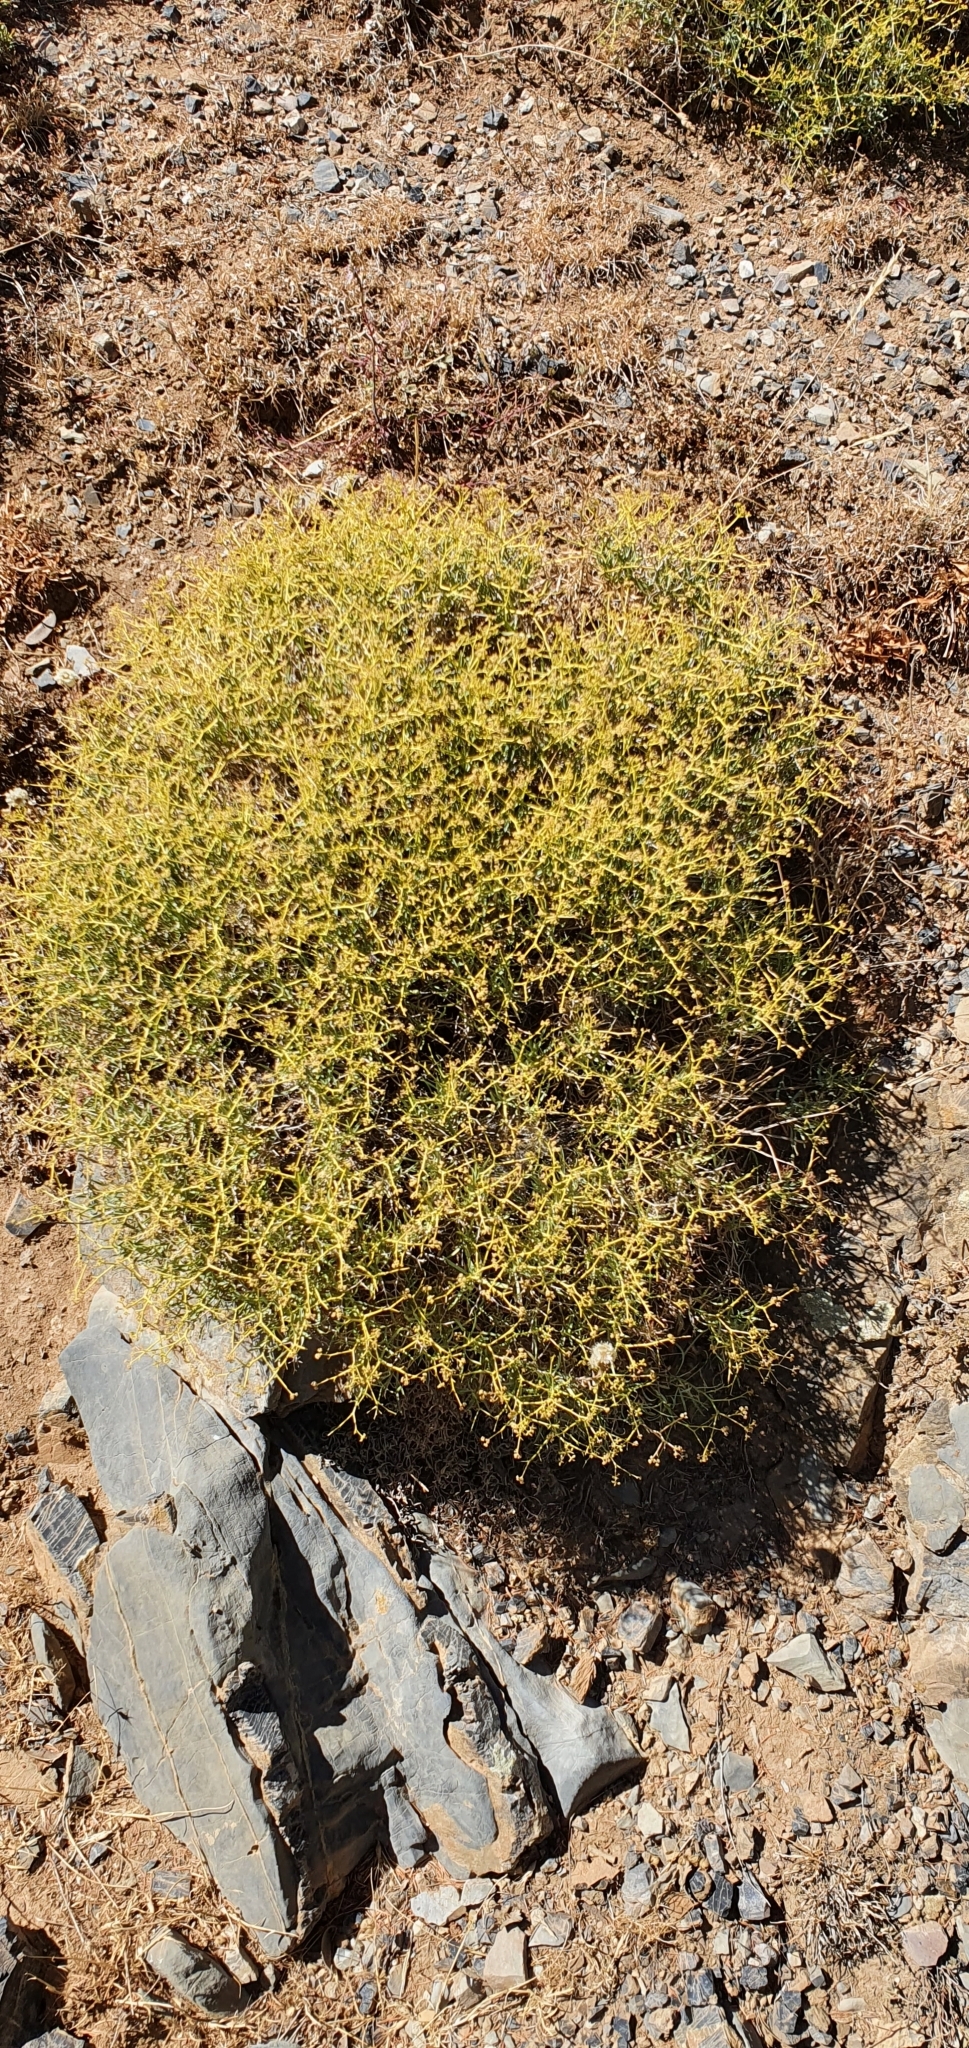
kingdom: Plantae
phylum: Tracheophyta
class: Magnoliopsida
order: Apiales
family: Apiaceae
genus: Bupleurum
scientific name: Bupleurum fruticescens
